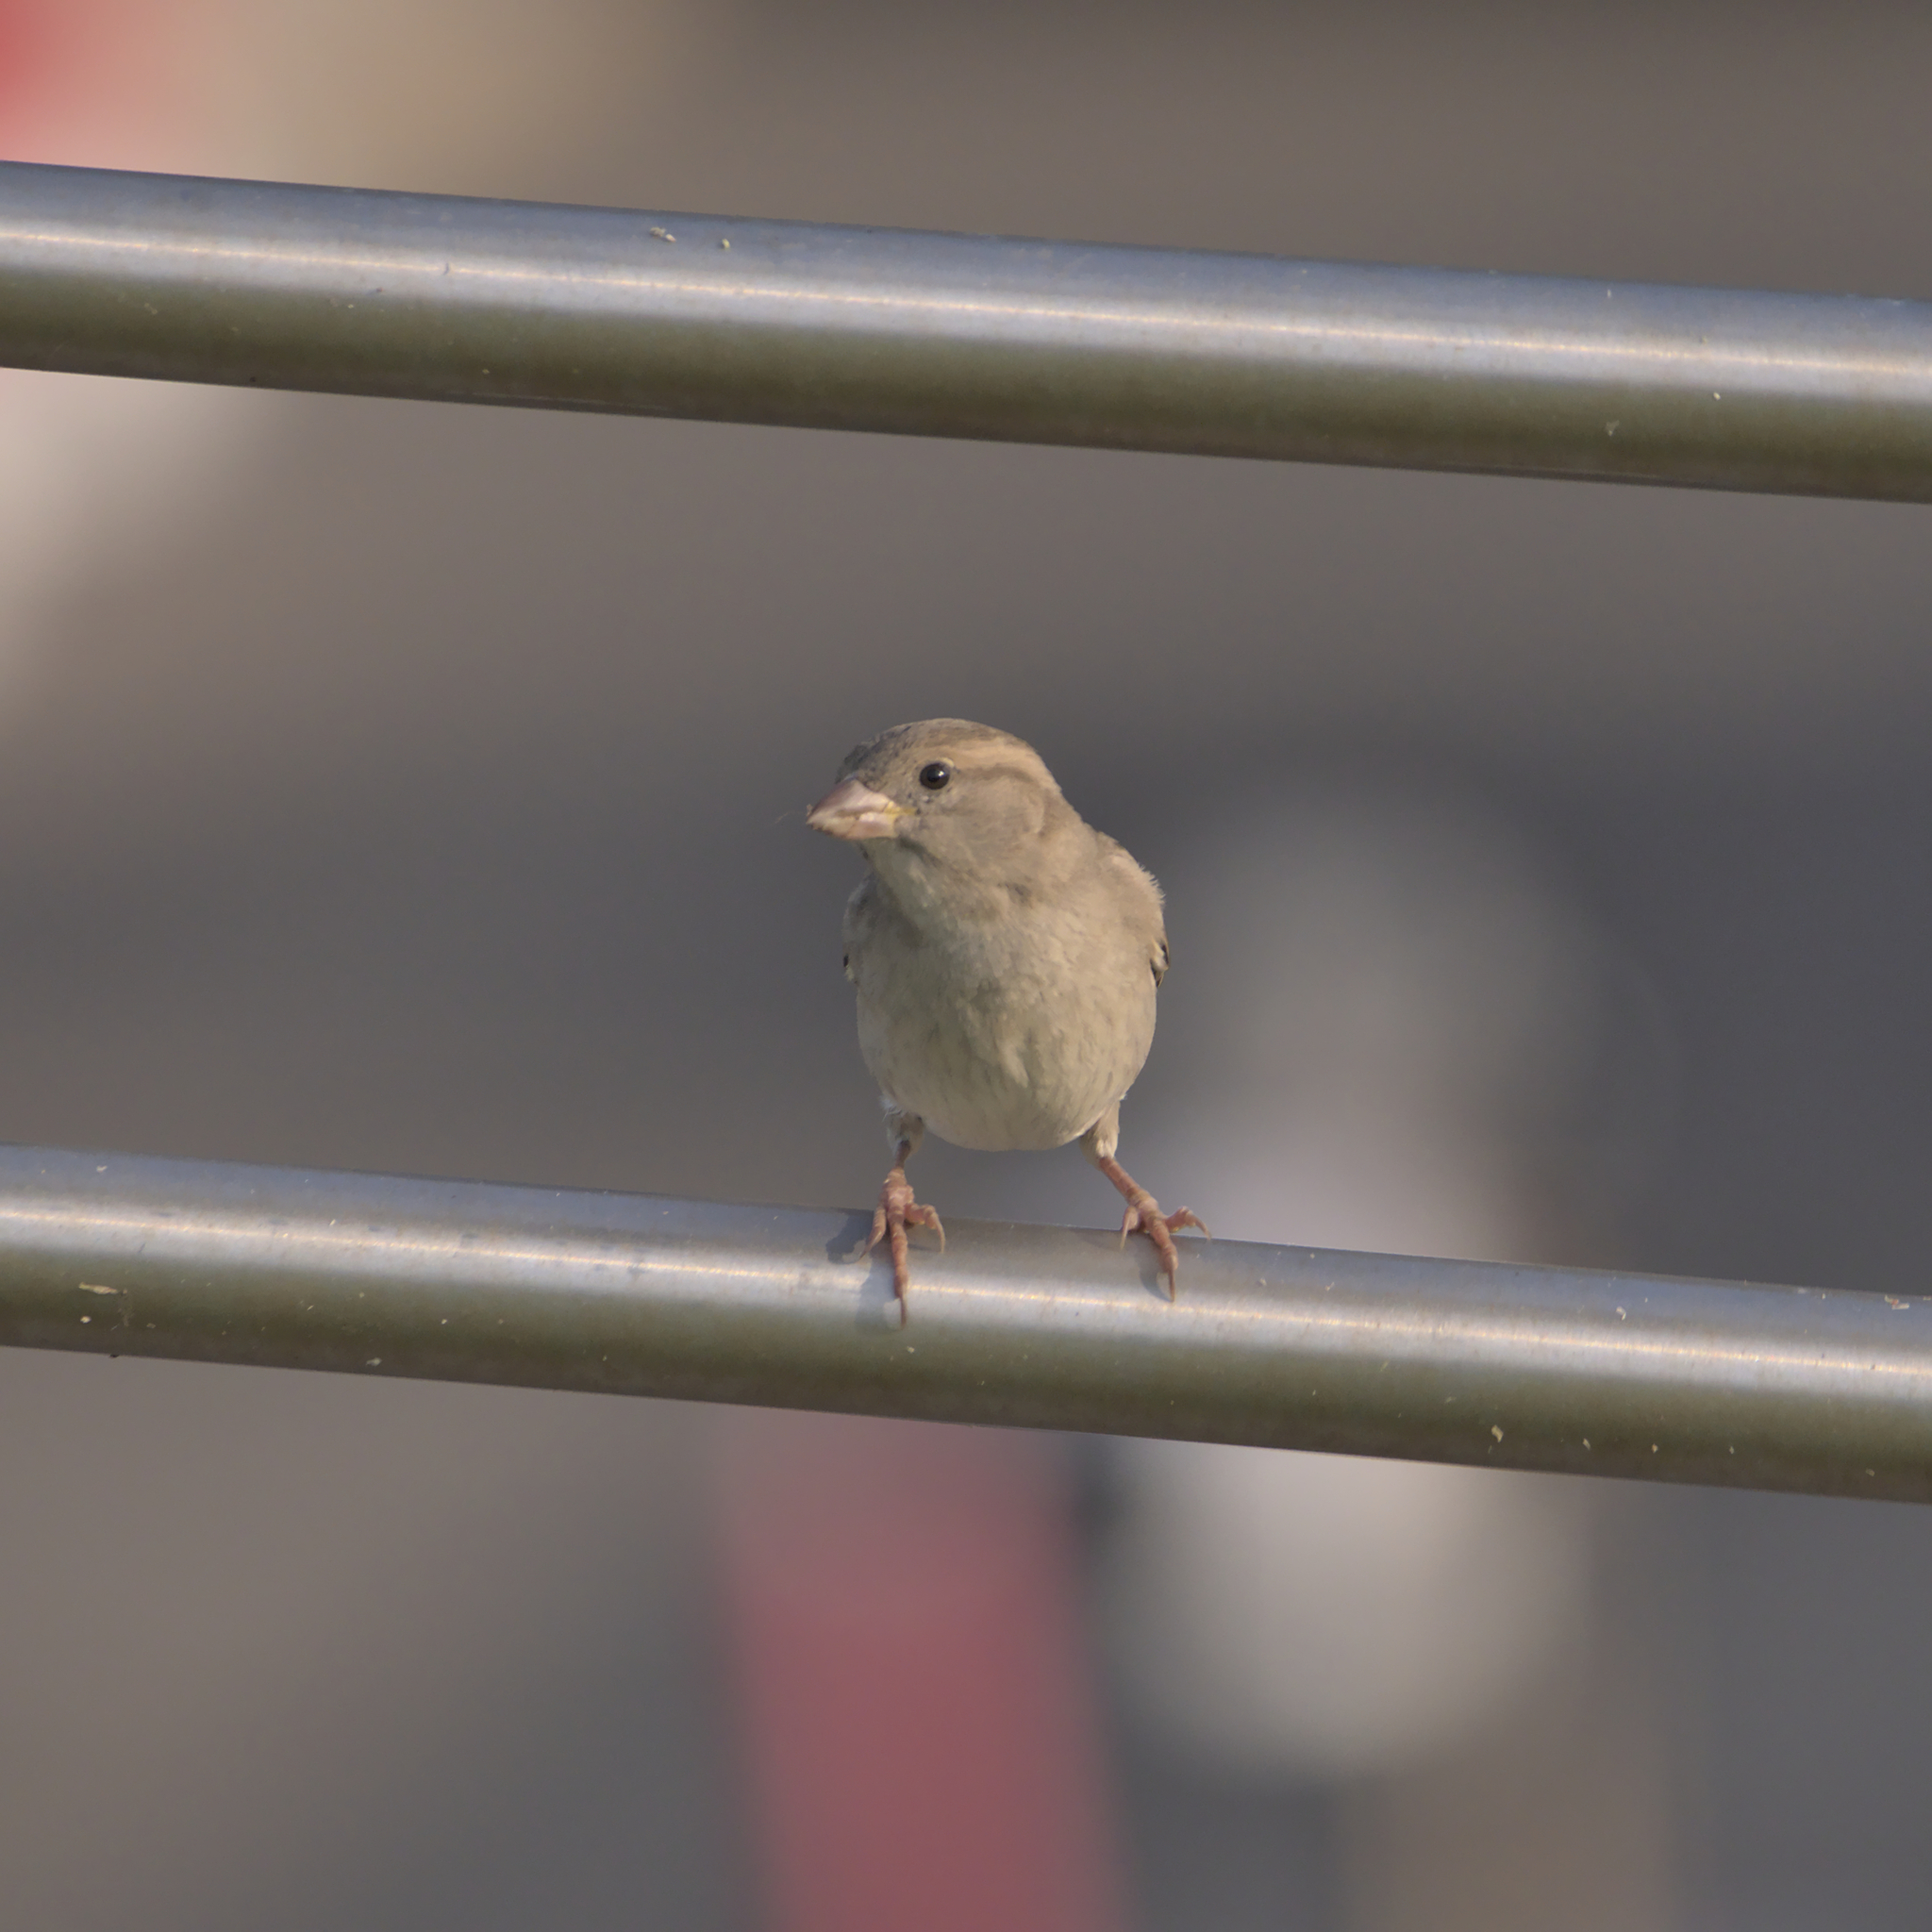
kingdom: Animalia
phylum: Chordata
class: Aves
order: Passeriformes
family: Passeridae
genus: Passer
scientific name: Passer domesticus
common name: House sparrow
